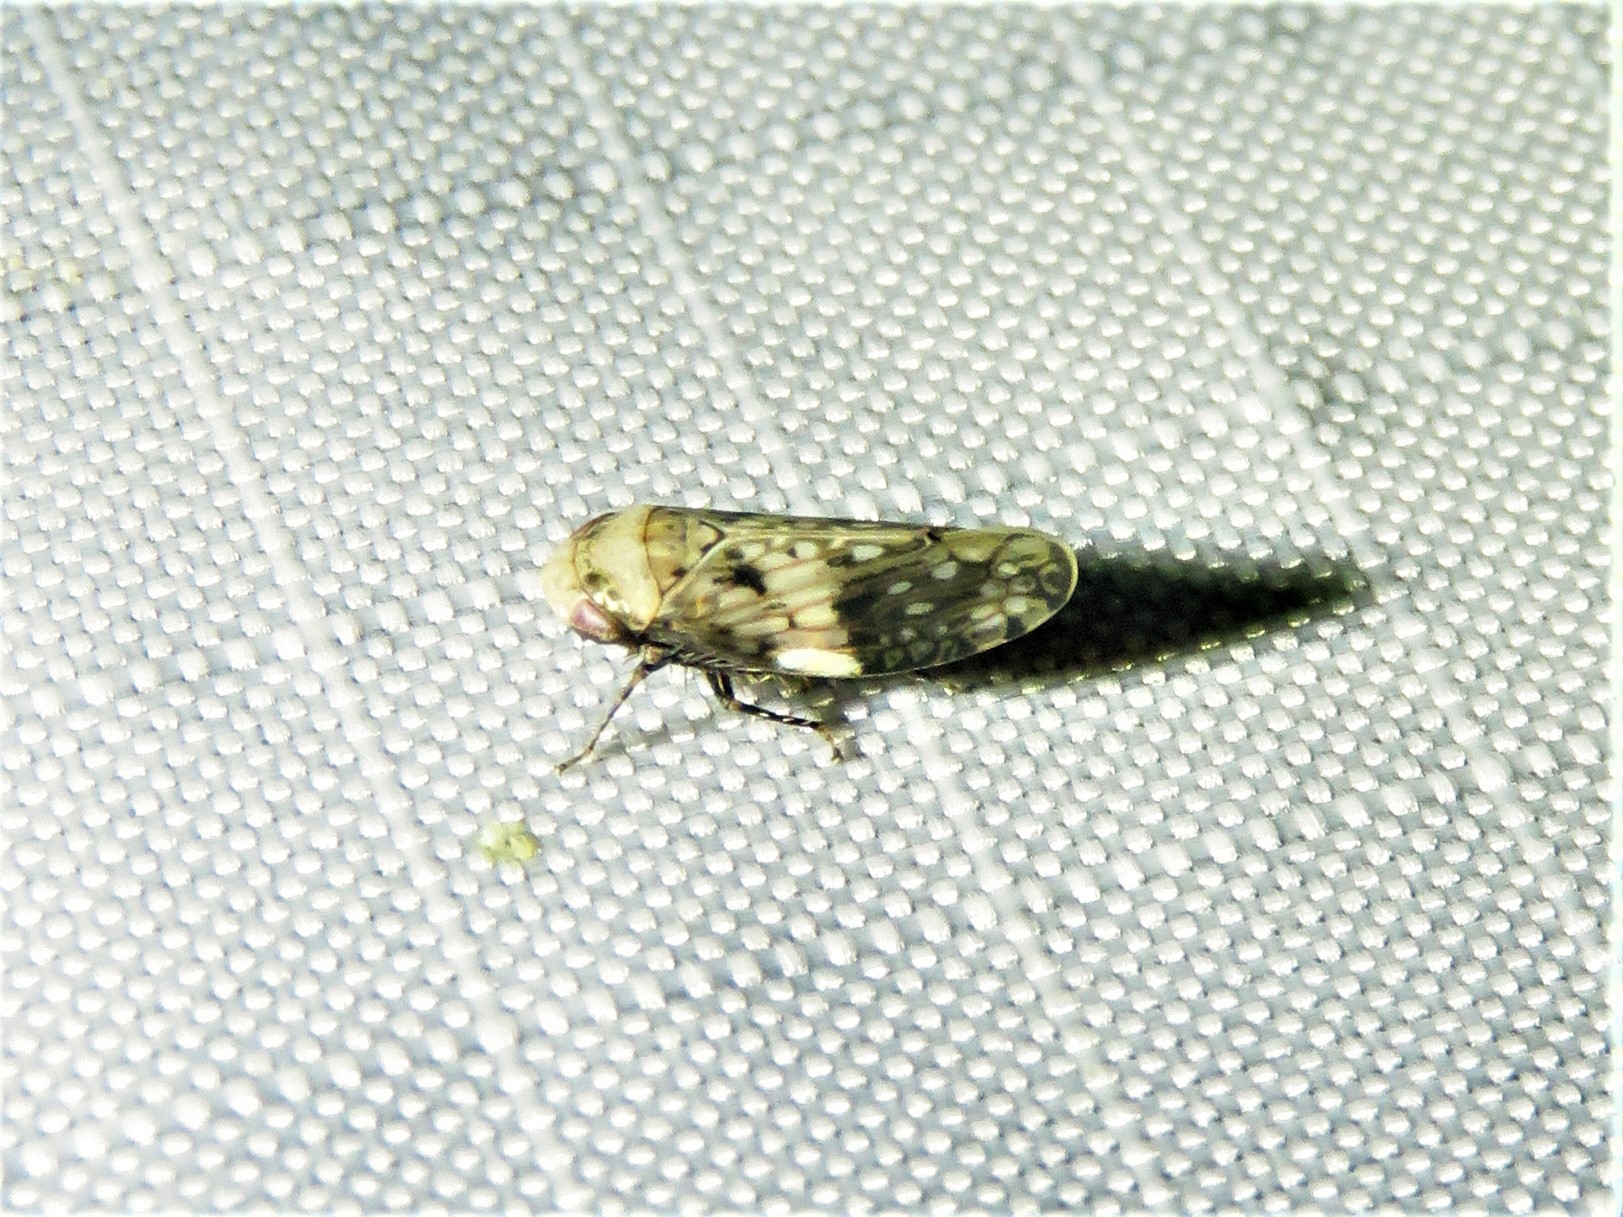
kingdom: Animalia
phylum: Arthropoda
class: Insecta
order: Hemiptera
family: Cicadellidae
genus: Menosoma
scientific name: Menosoma cinctum
